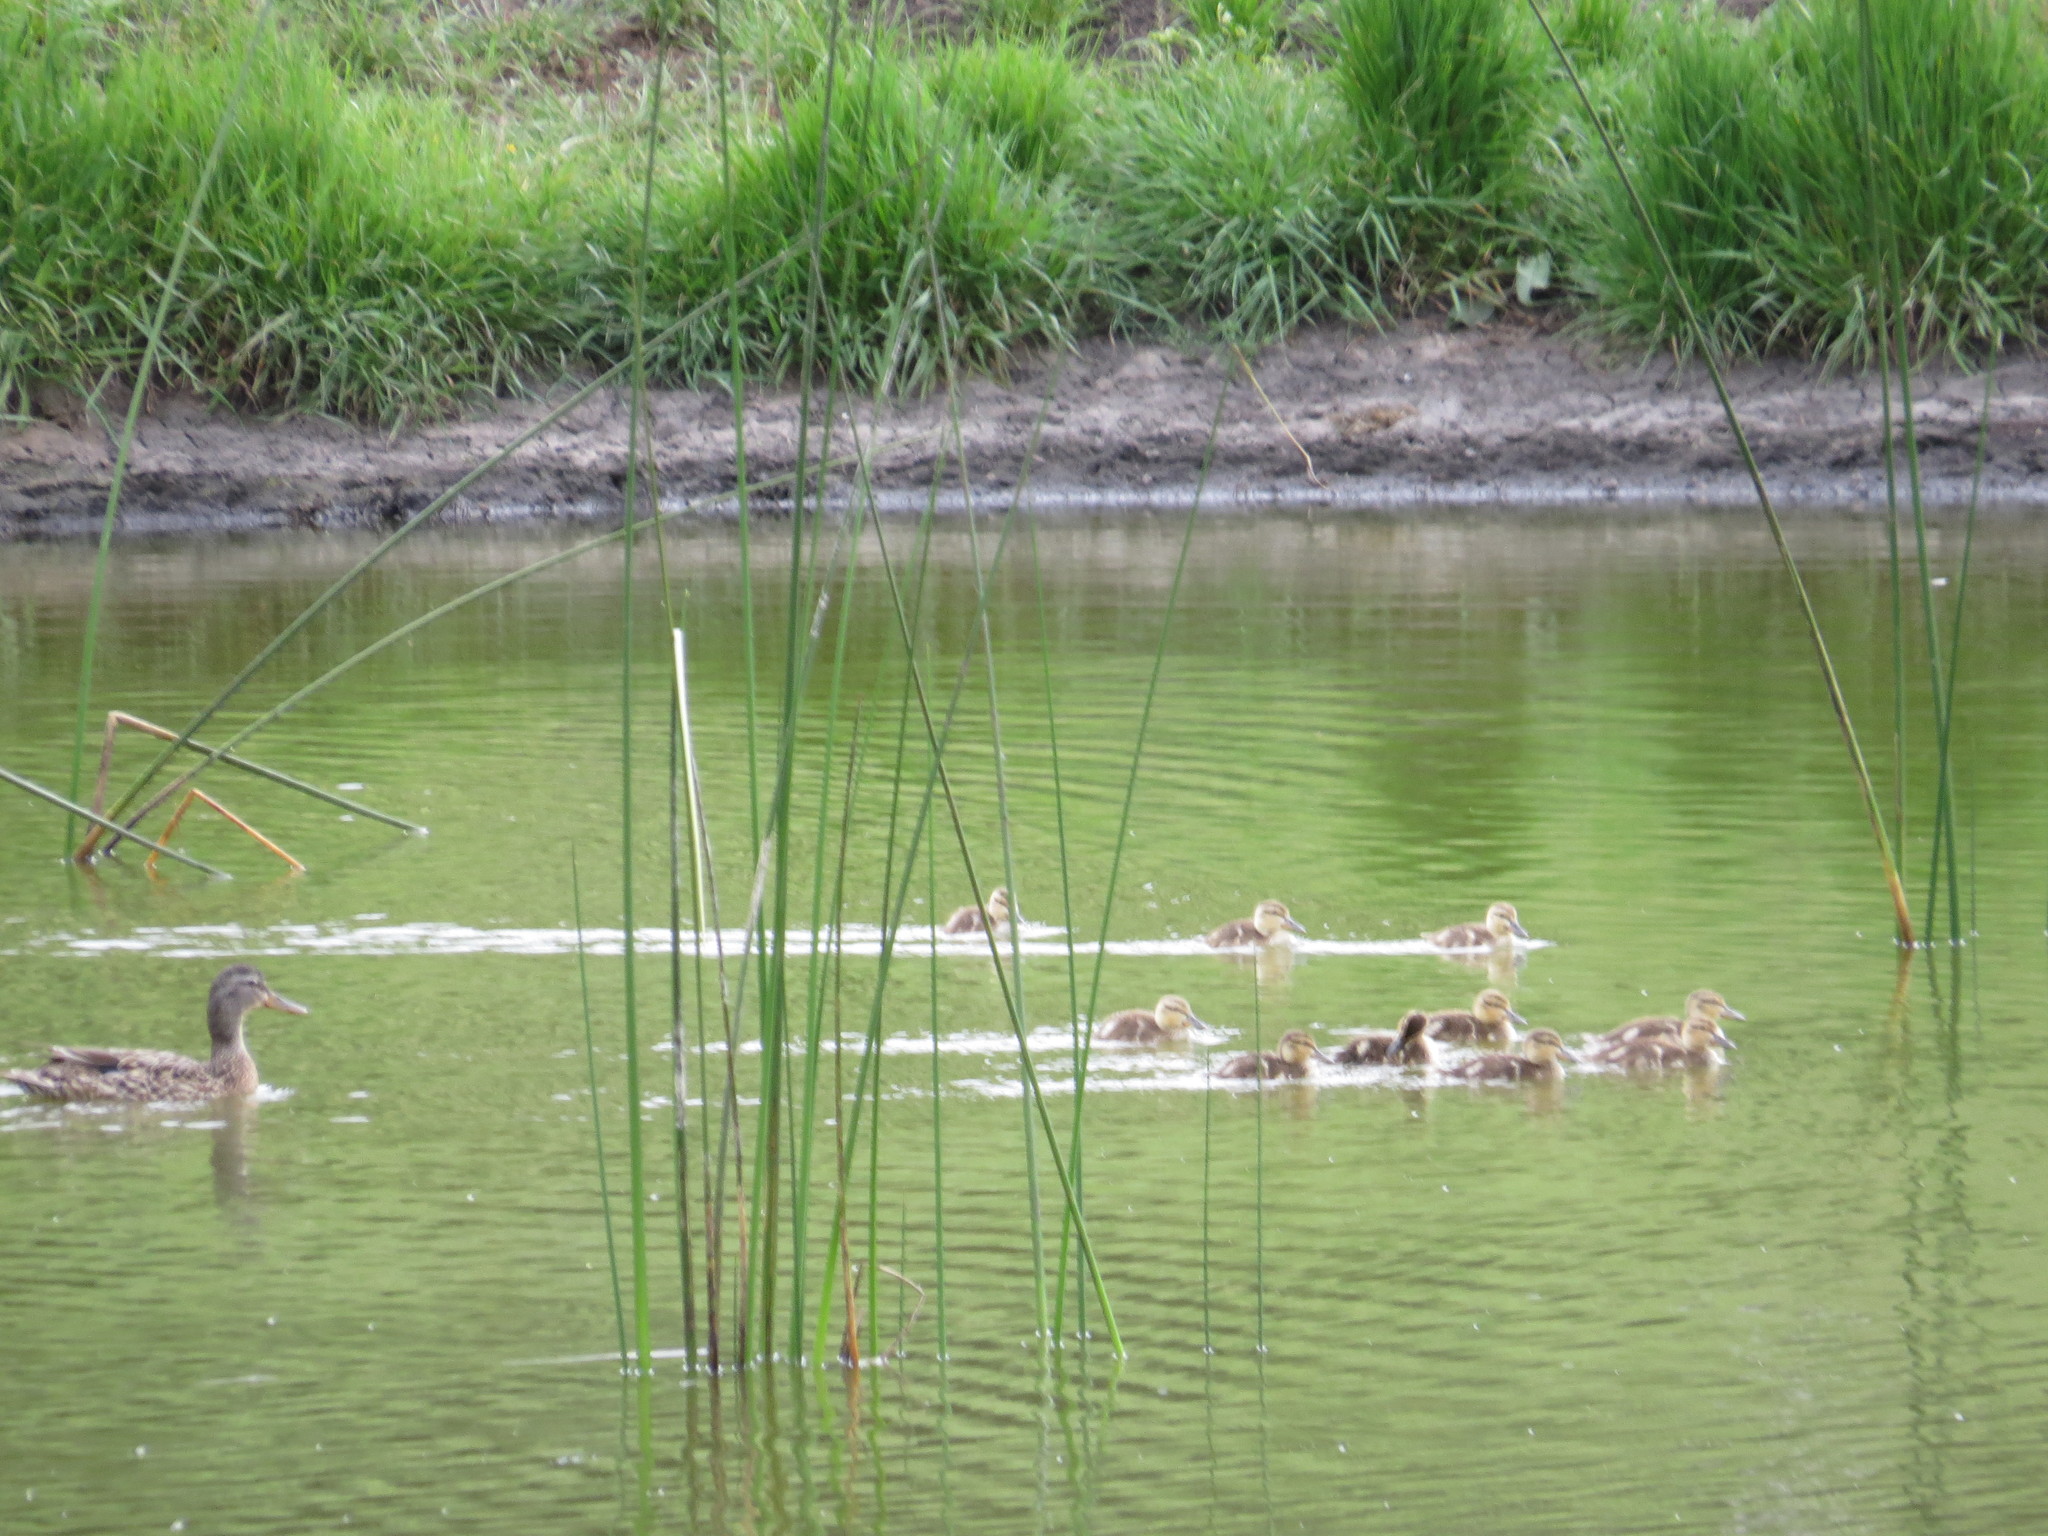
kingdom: Animalia
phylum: Chordata
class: Aves
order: Anseriformes
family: Anatidae
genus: Anas
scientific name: Anas platyrhynchos
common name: Mallard
